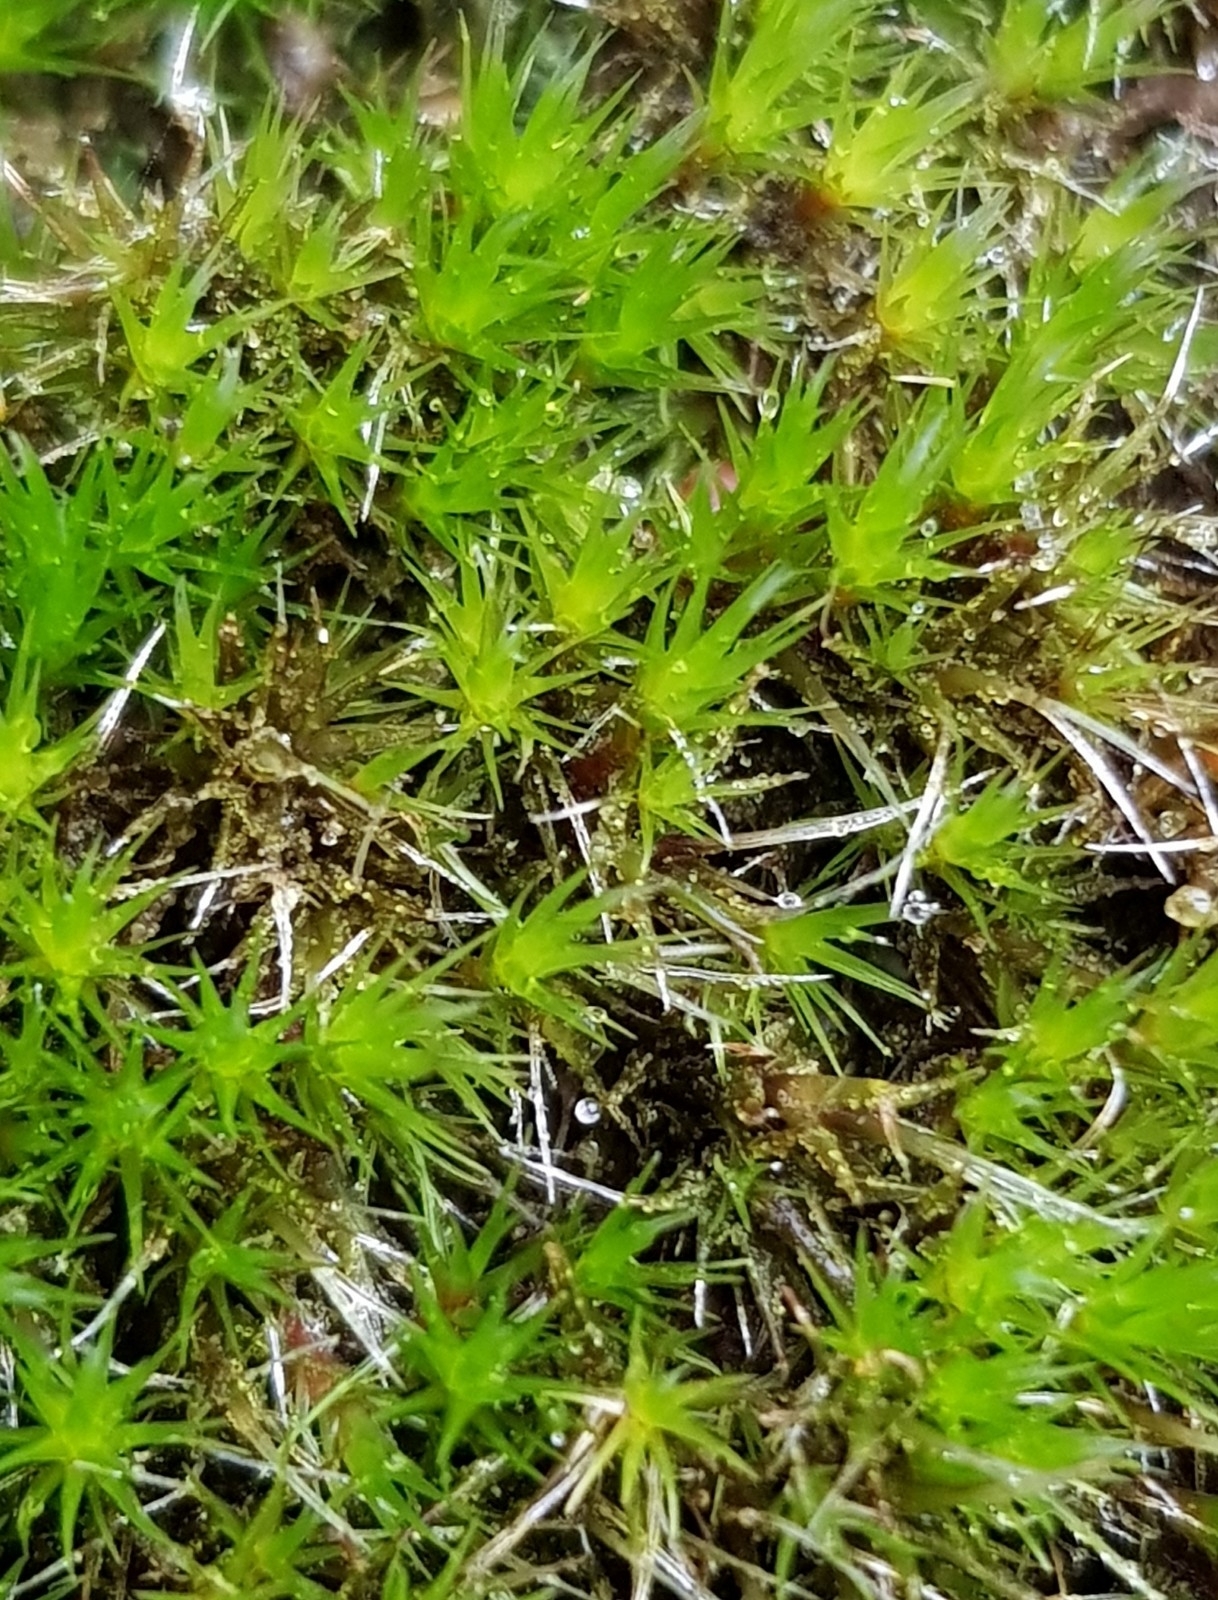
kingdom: Plantae
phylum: Bryophyta
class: Bryopsida
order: Dicranales
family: Leucobryaceae
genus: Campylopus
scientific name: Campylopus introflexus
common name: Heath star moss
